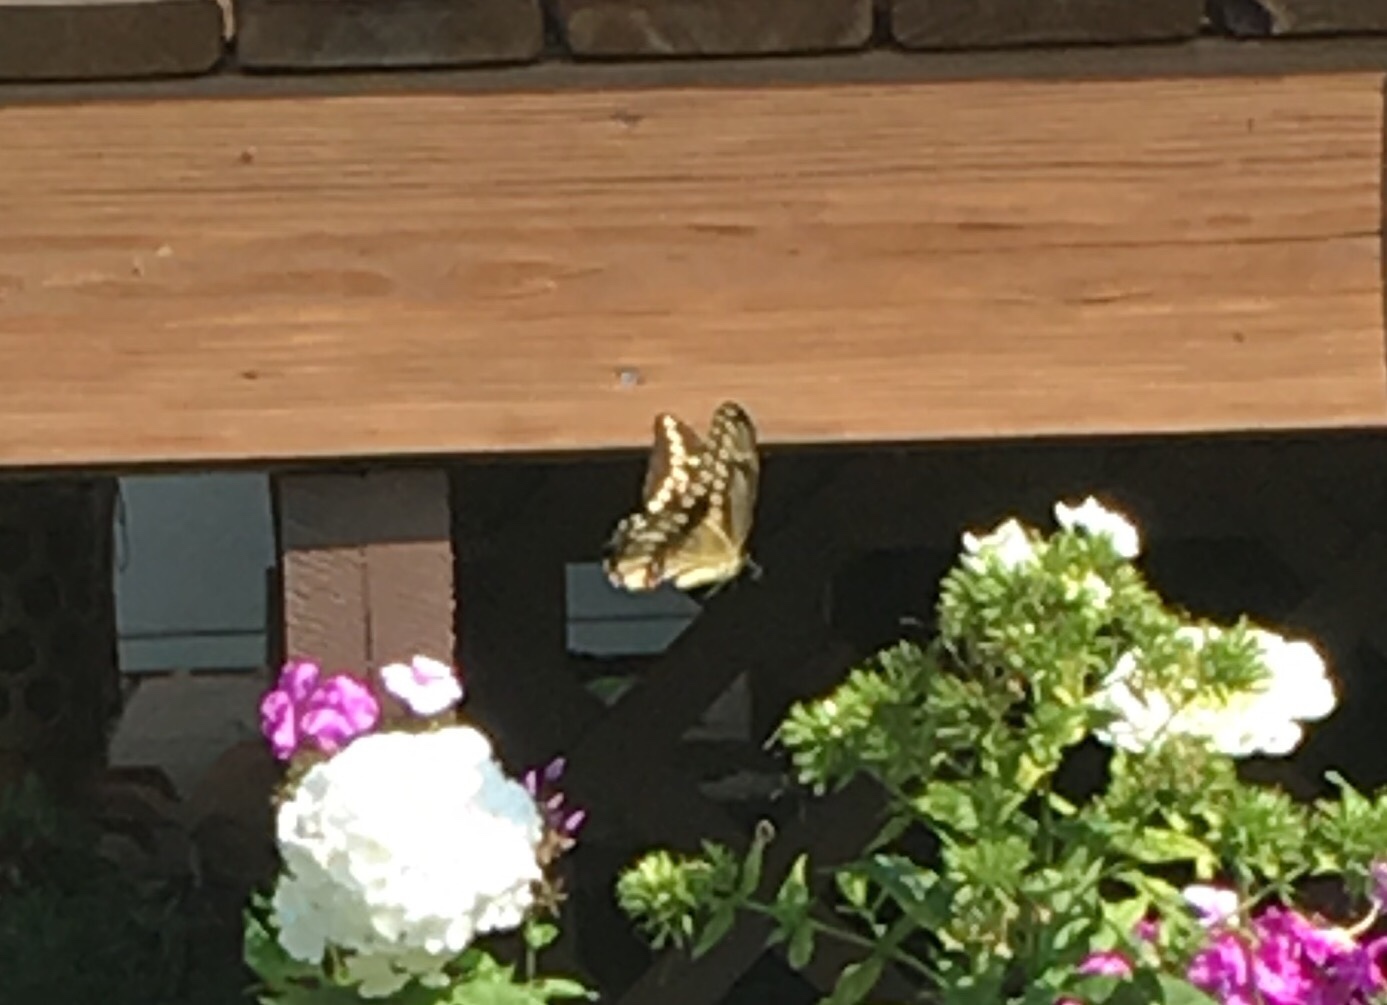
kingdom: Animalia
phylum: Arthropoda
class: Insecta
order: Lepidoptera
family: Papilionidae
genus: Papilio
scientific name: Papilio cresphontes
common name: Giant swallowtail
